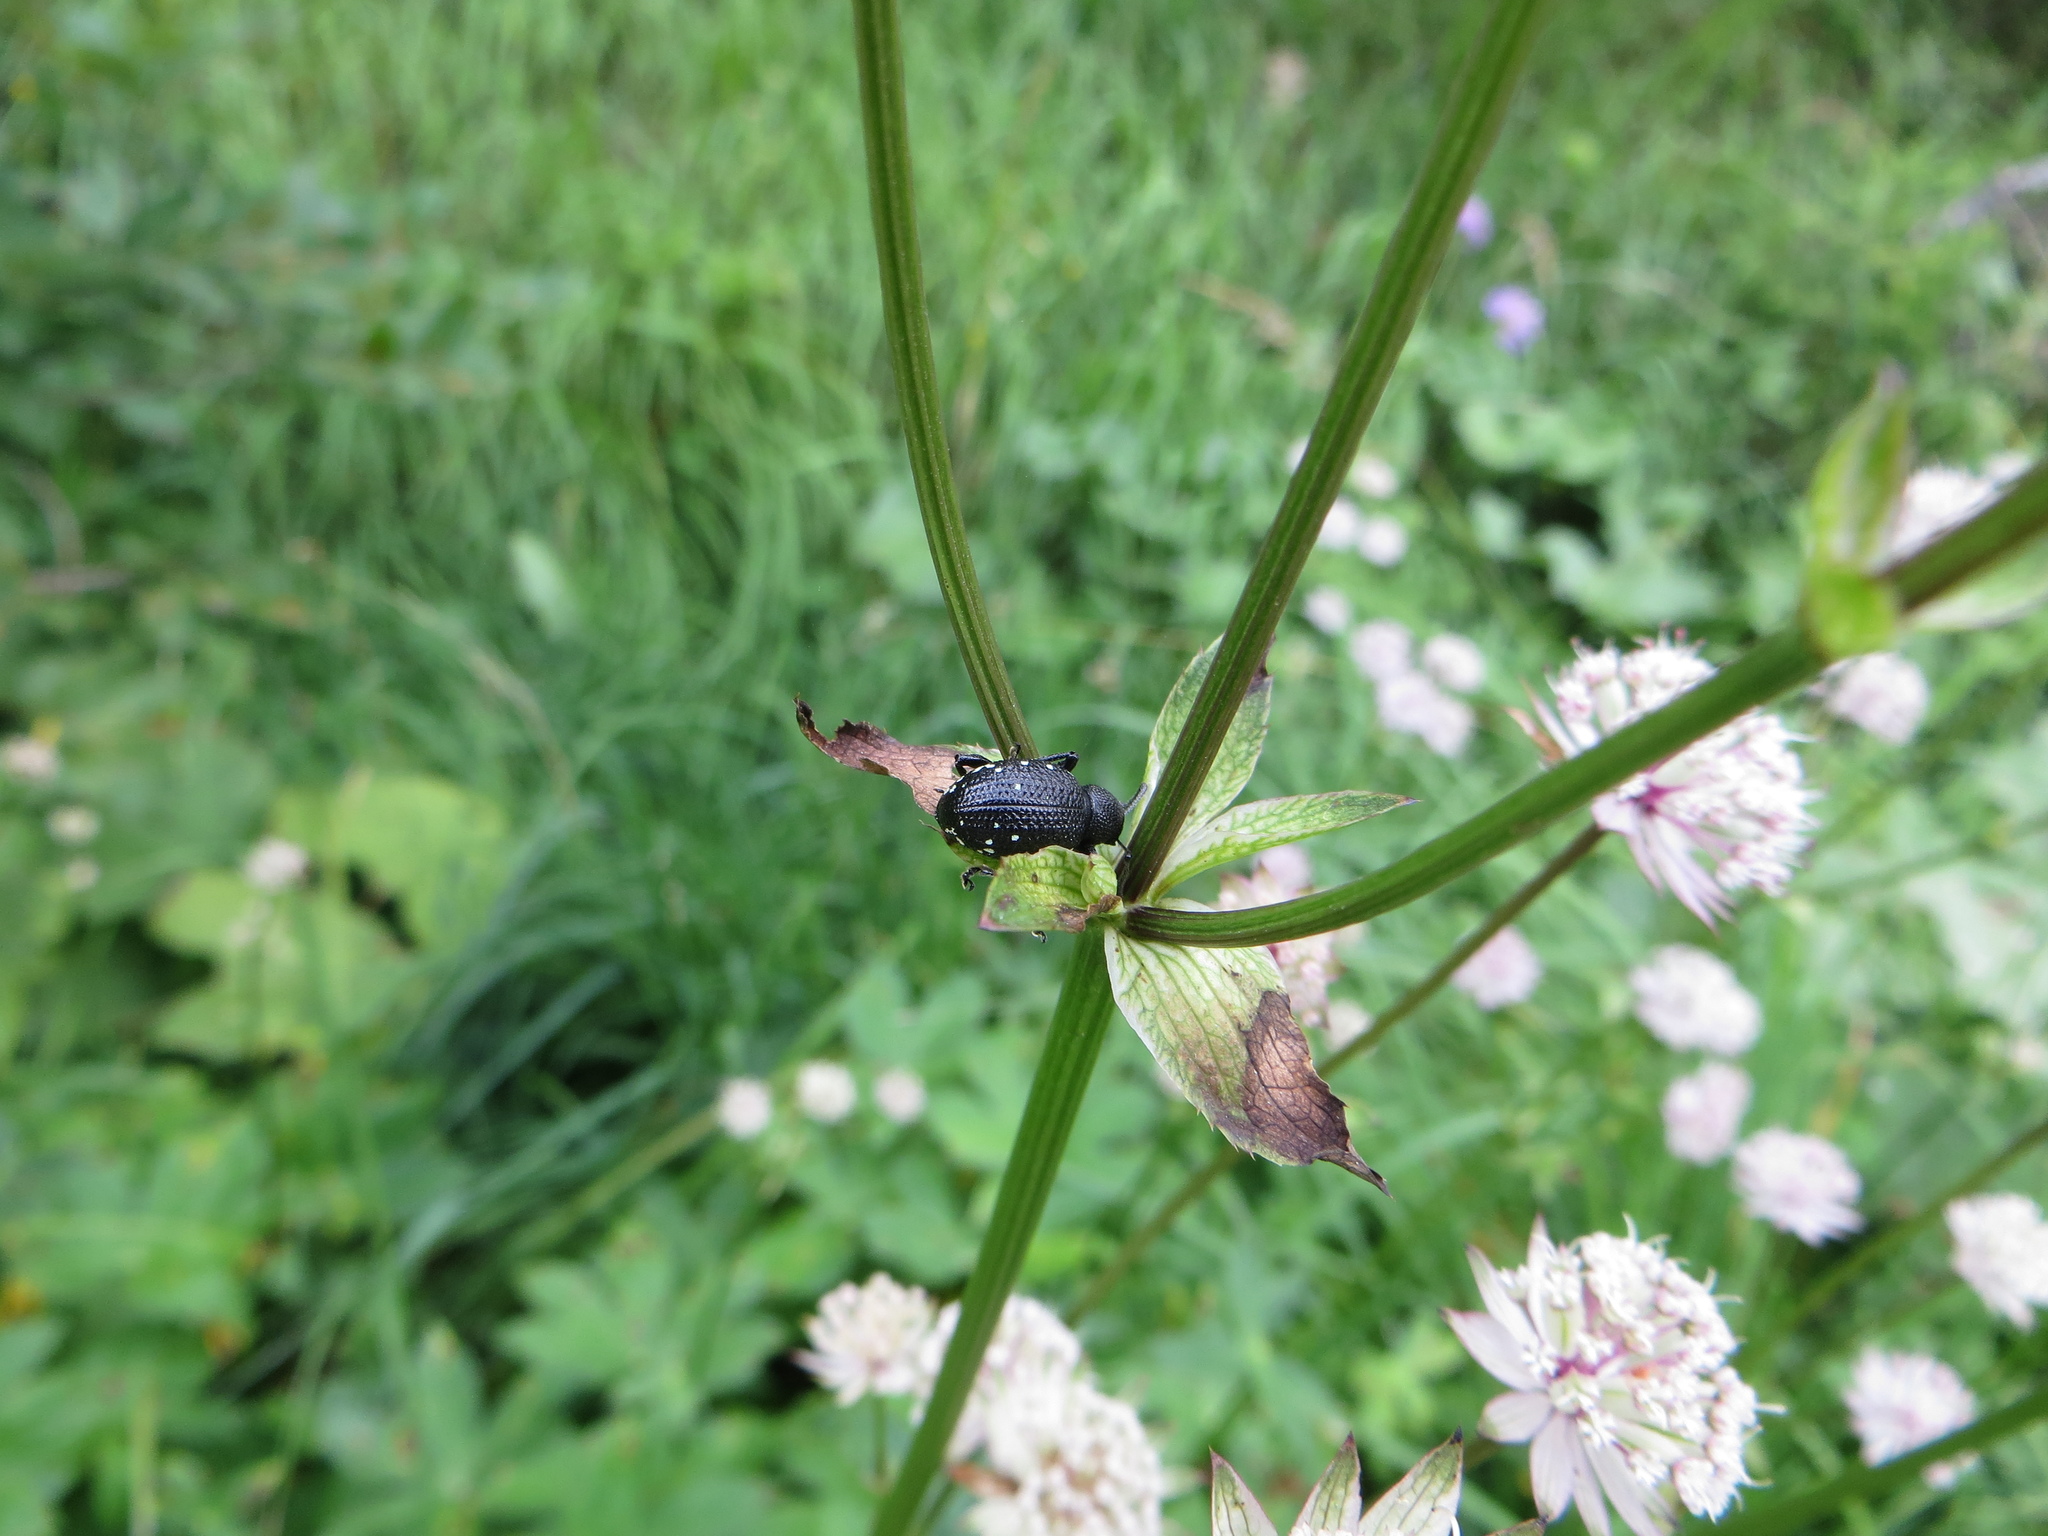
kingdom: Animalia
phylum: Arthropoda
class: Insecta
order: Coleoptera
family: Curculionidae
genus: Otiorhynchus
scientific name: Otiorhynchus gemmatus
